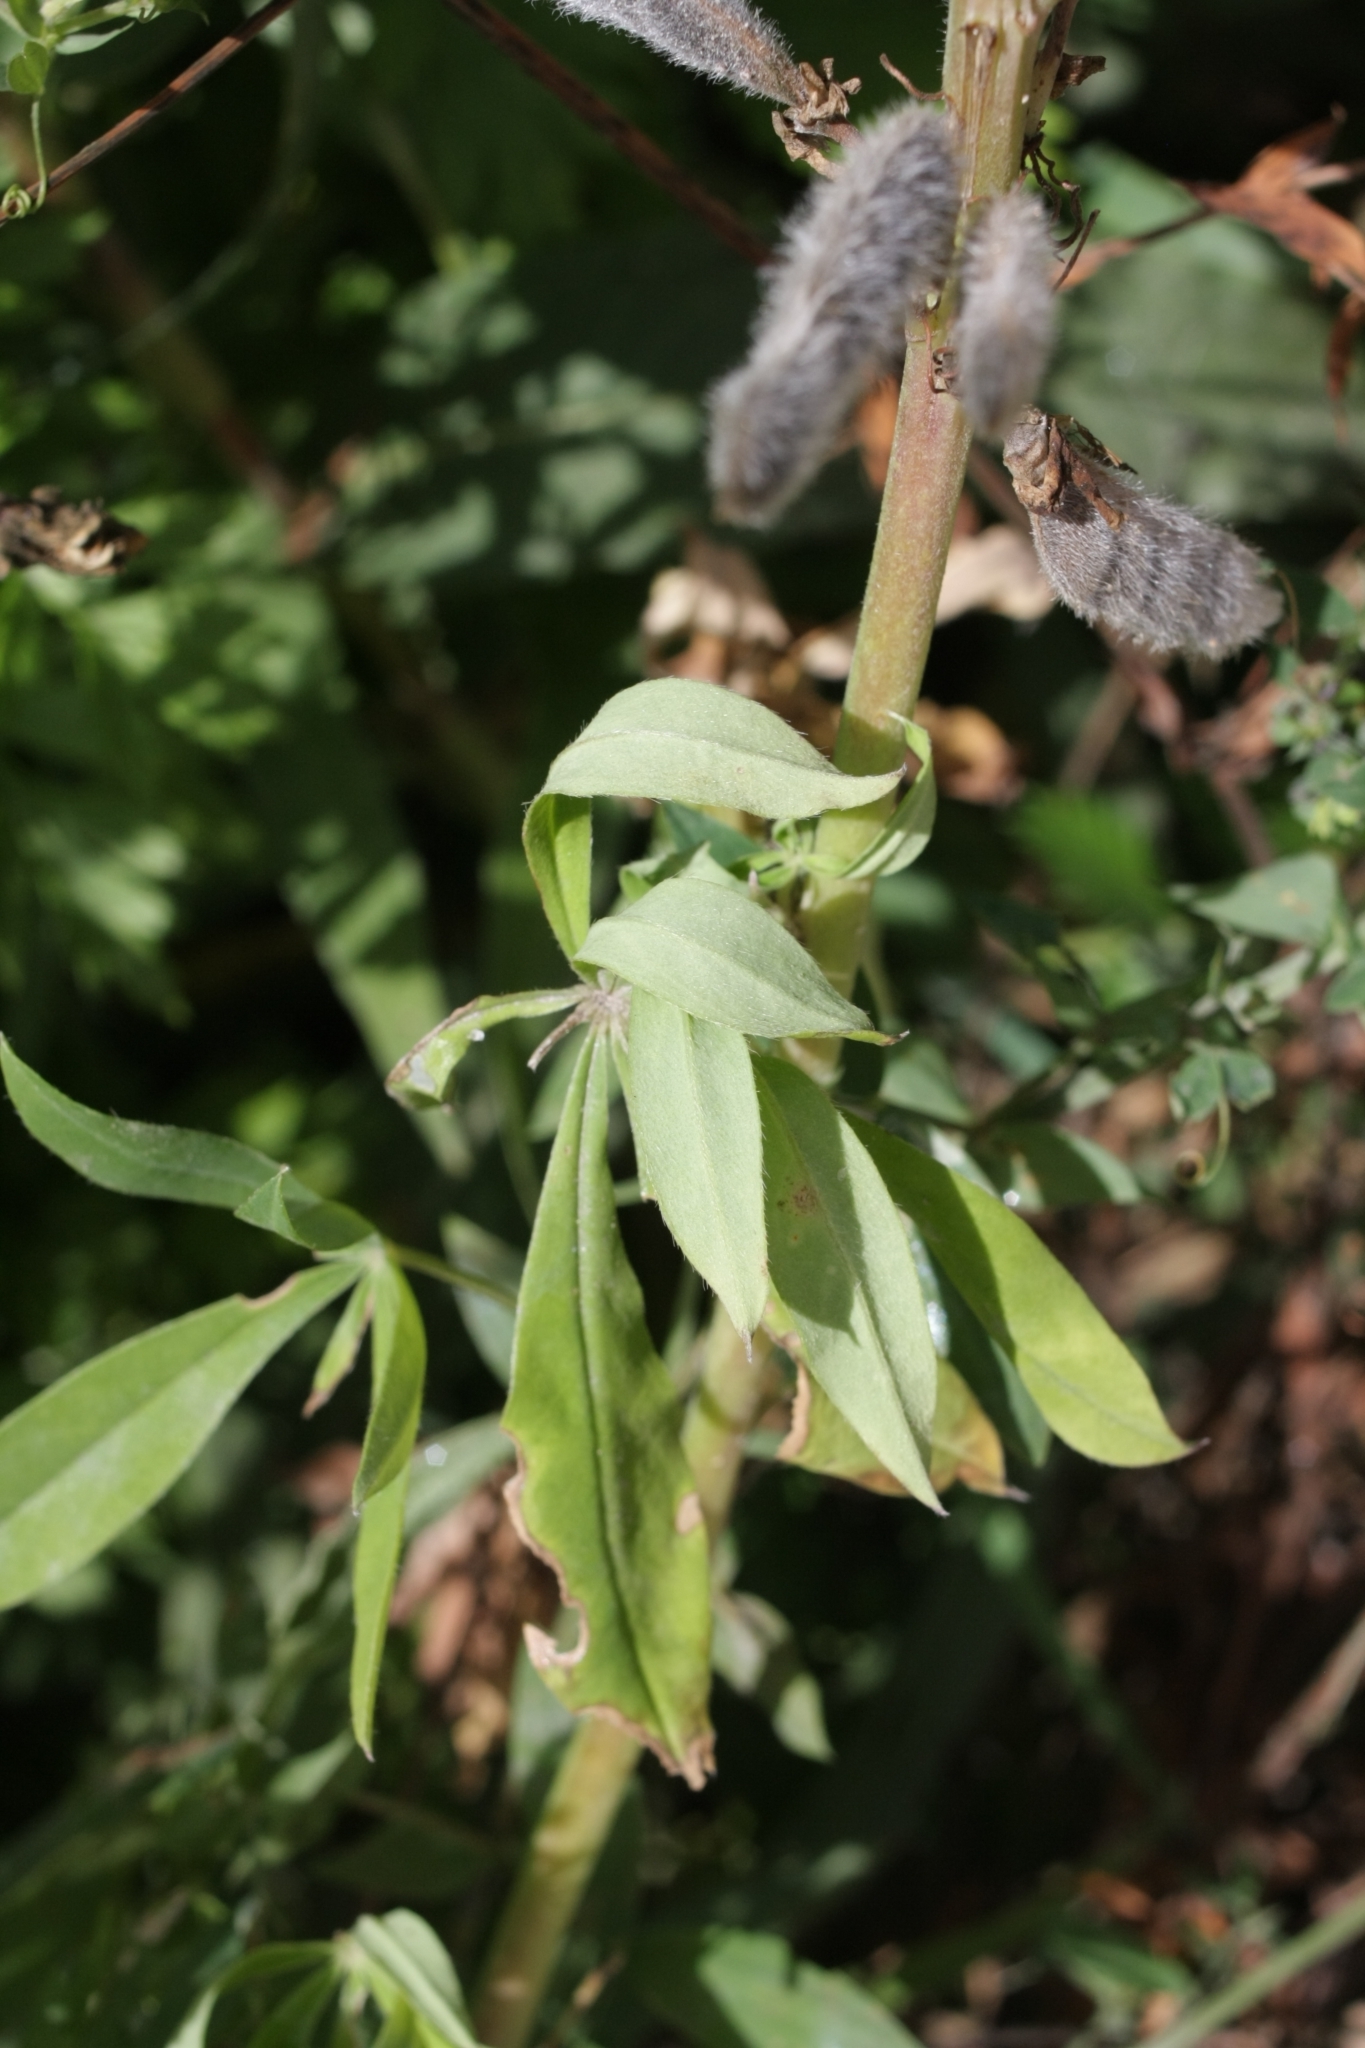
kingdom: Plantae
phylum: Tracheophyta
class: Magnoliopsida
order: Fabales
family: Fabaceae
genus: Lupinus
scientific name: Lupinus polyphyllus
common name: Garden lupin
